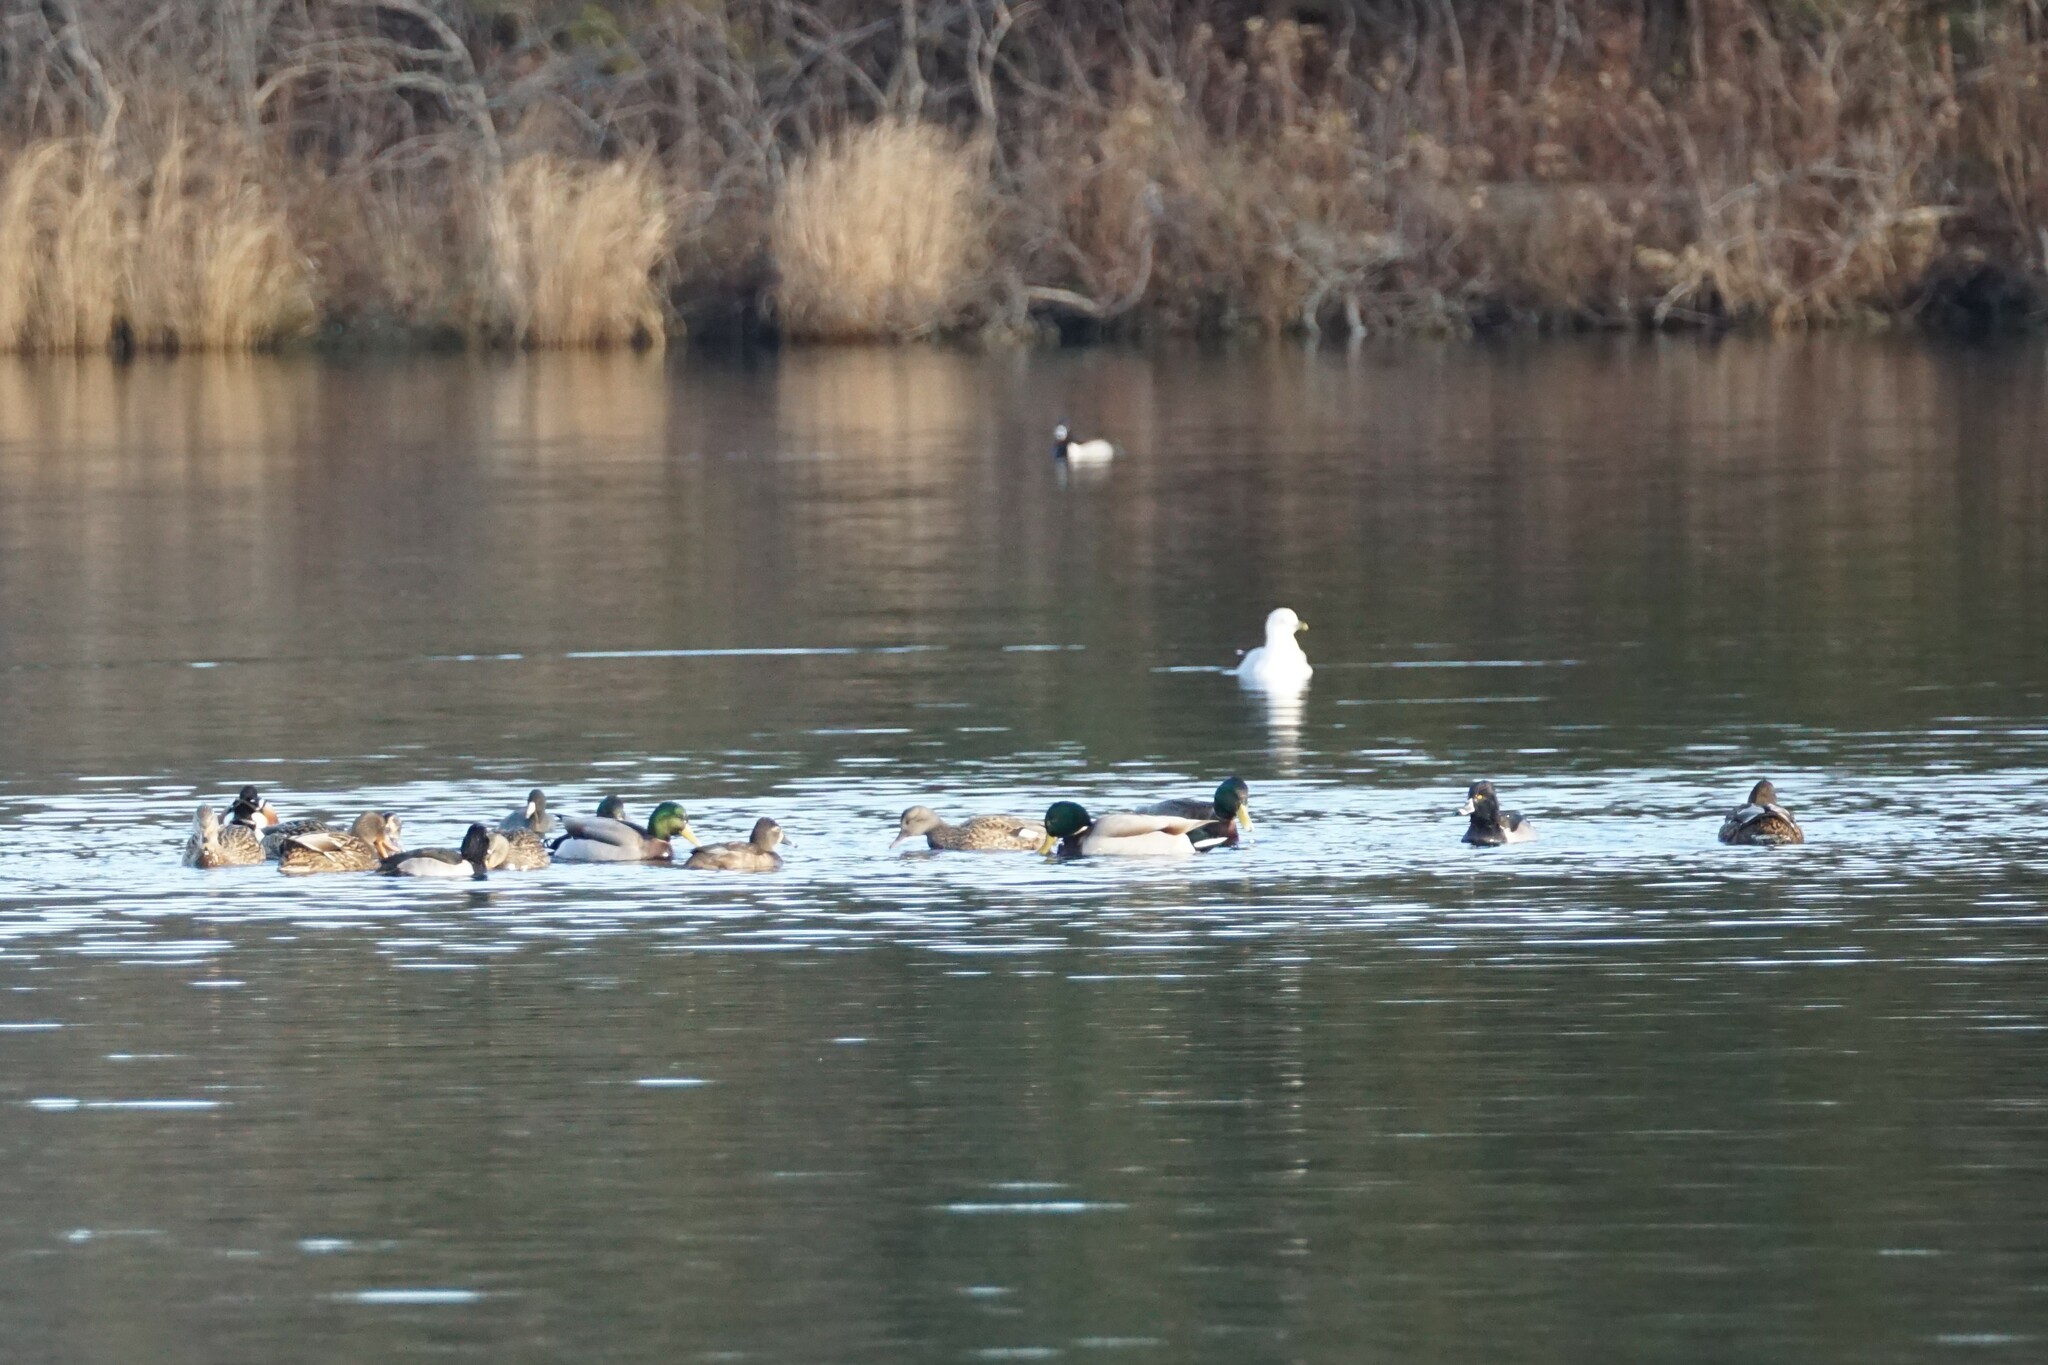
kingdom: Animalia
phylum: Chordata
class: Aves
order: Anseriformes
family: Anatidae
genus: Anas
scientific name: Anas platyrhynchos
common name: Mallard
